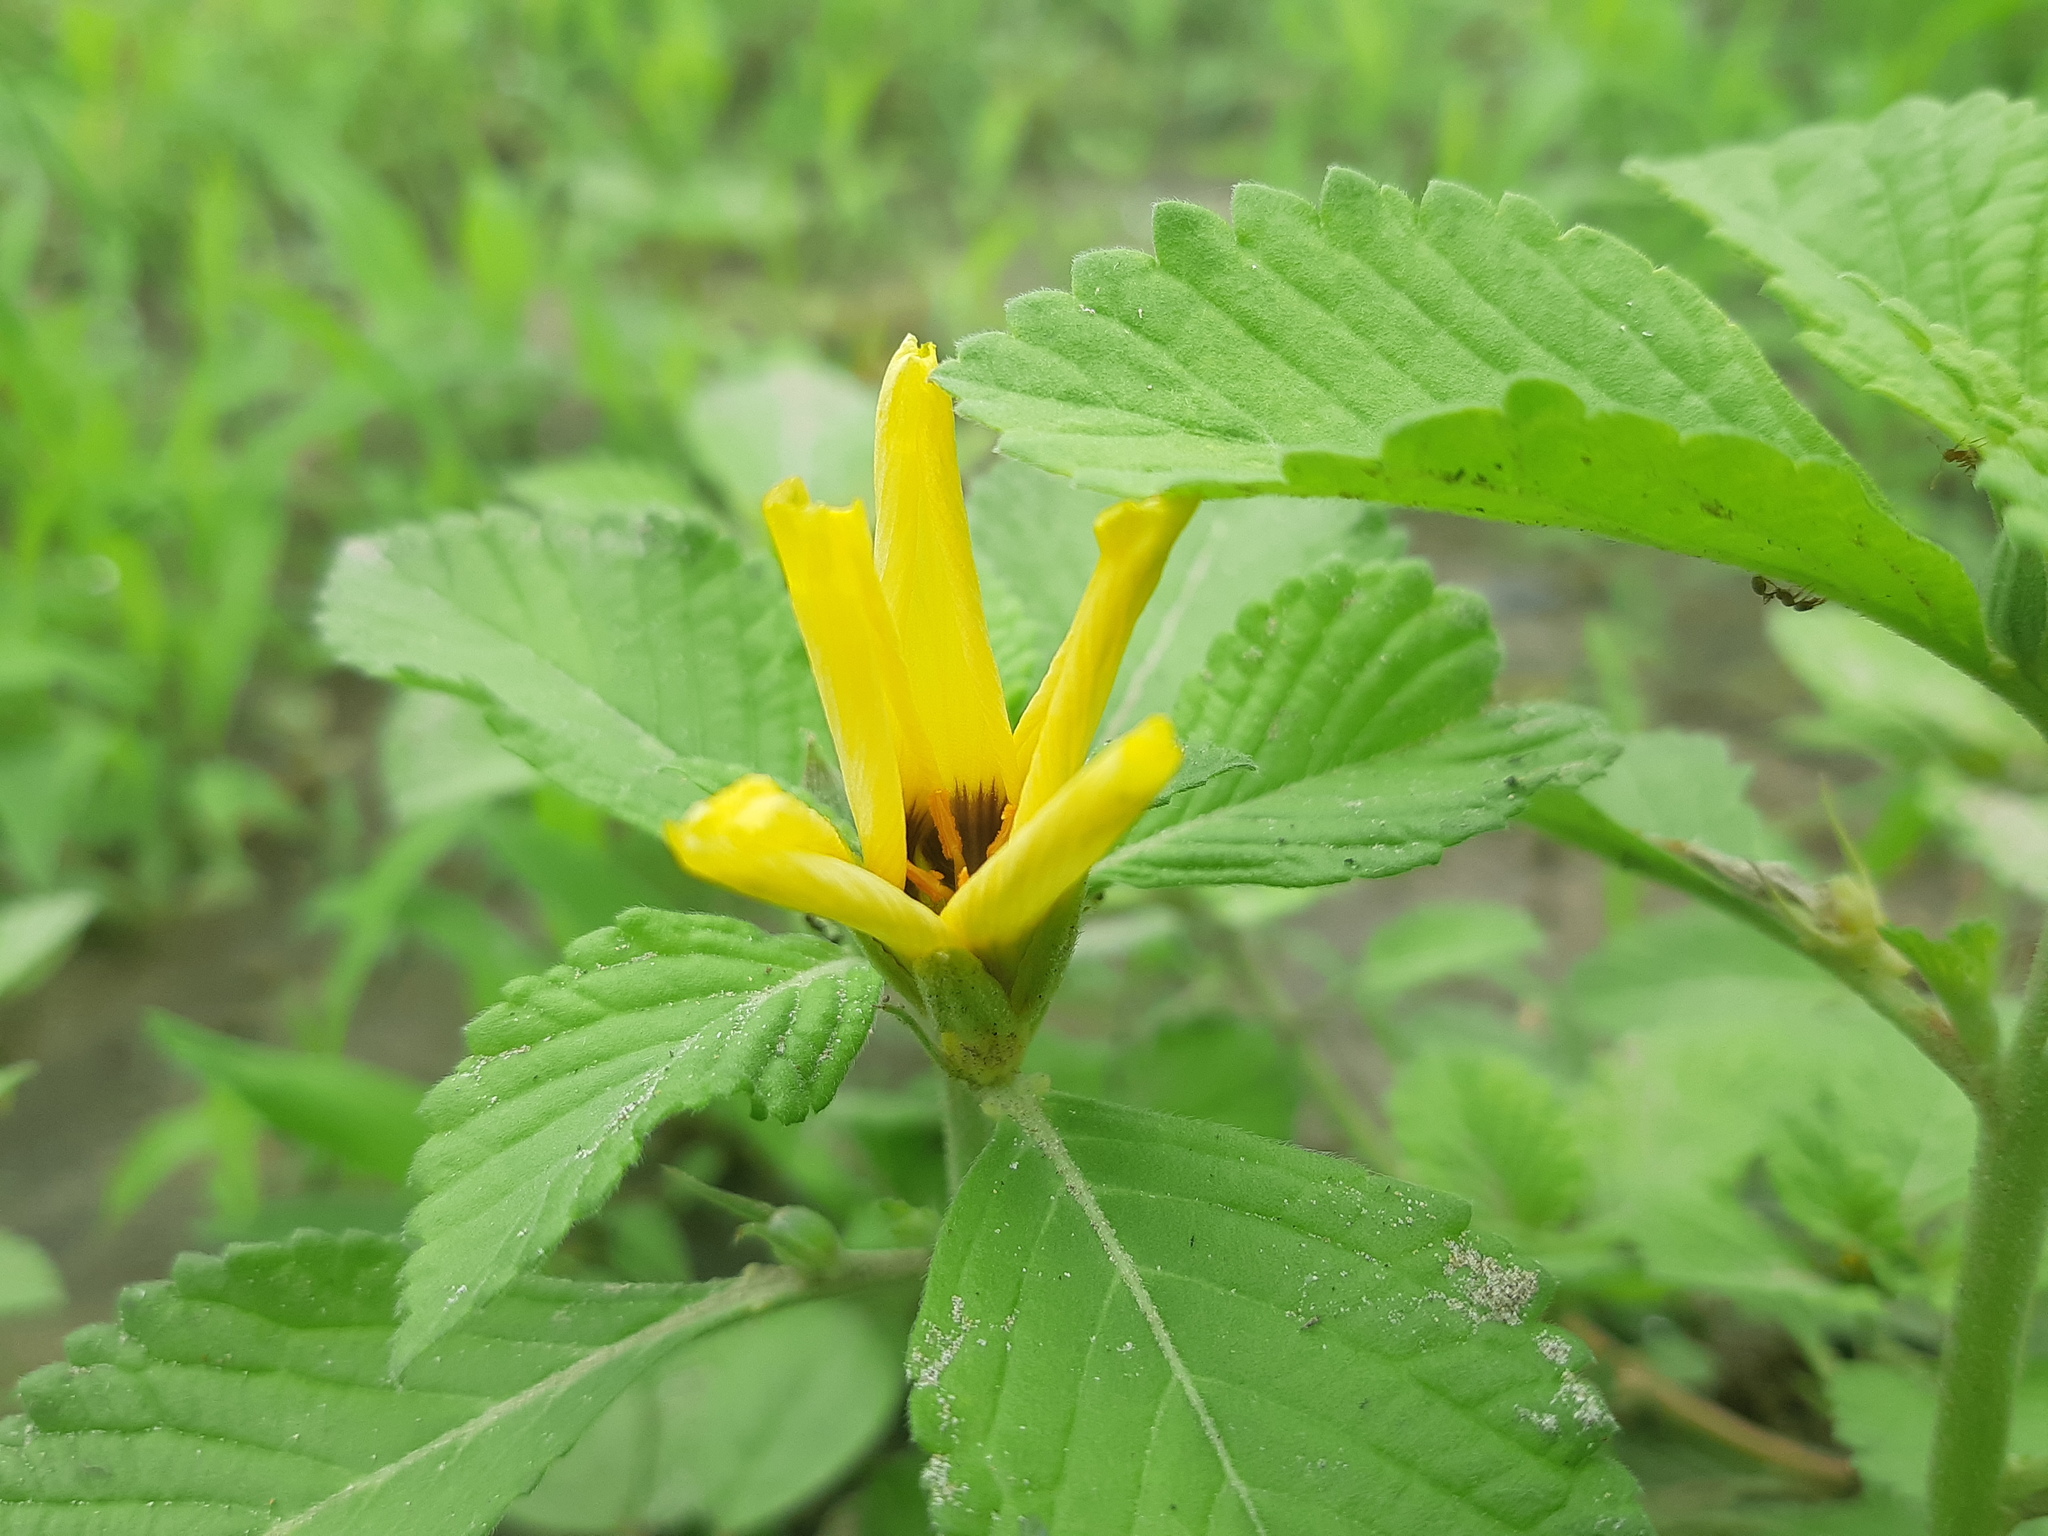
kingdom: Plantae
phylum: Tracheophyta
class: Magnoliopsida
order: Malpighiales
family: Turneraceae
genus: Turnera
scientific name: Turnera subulata
